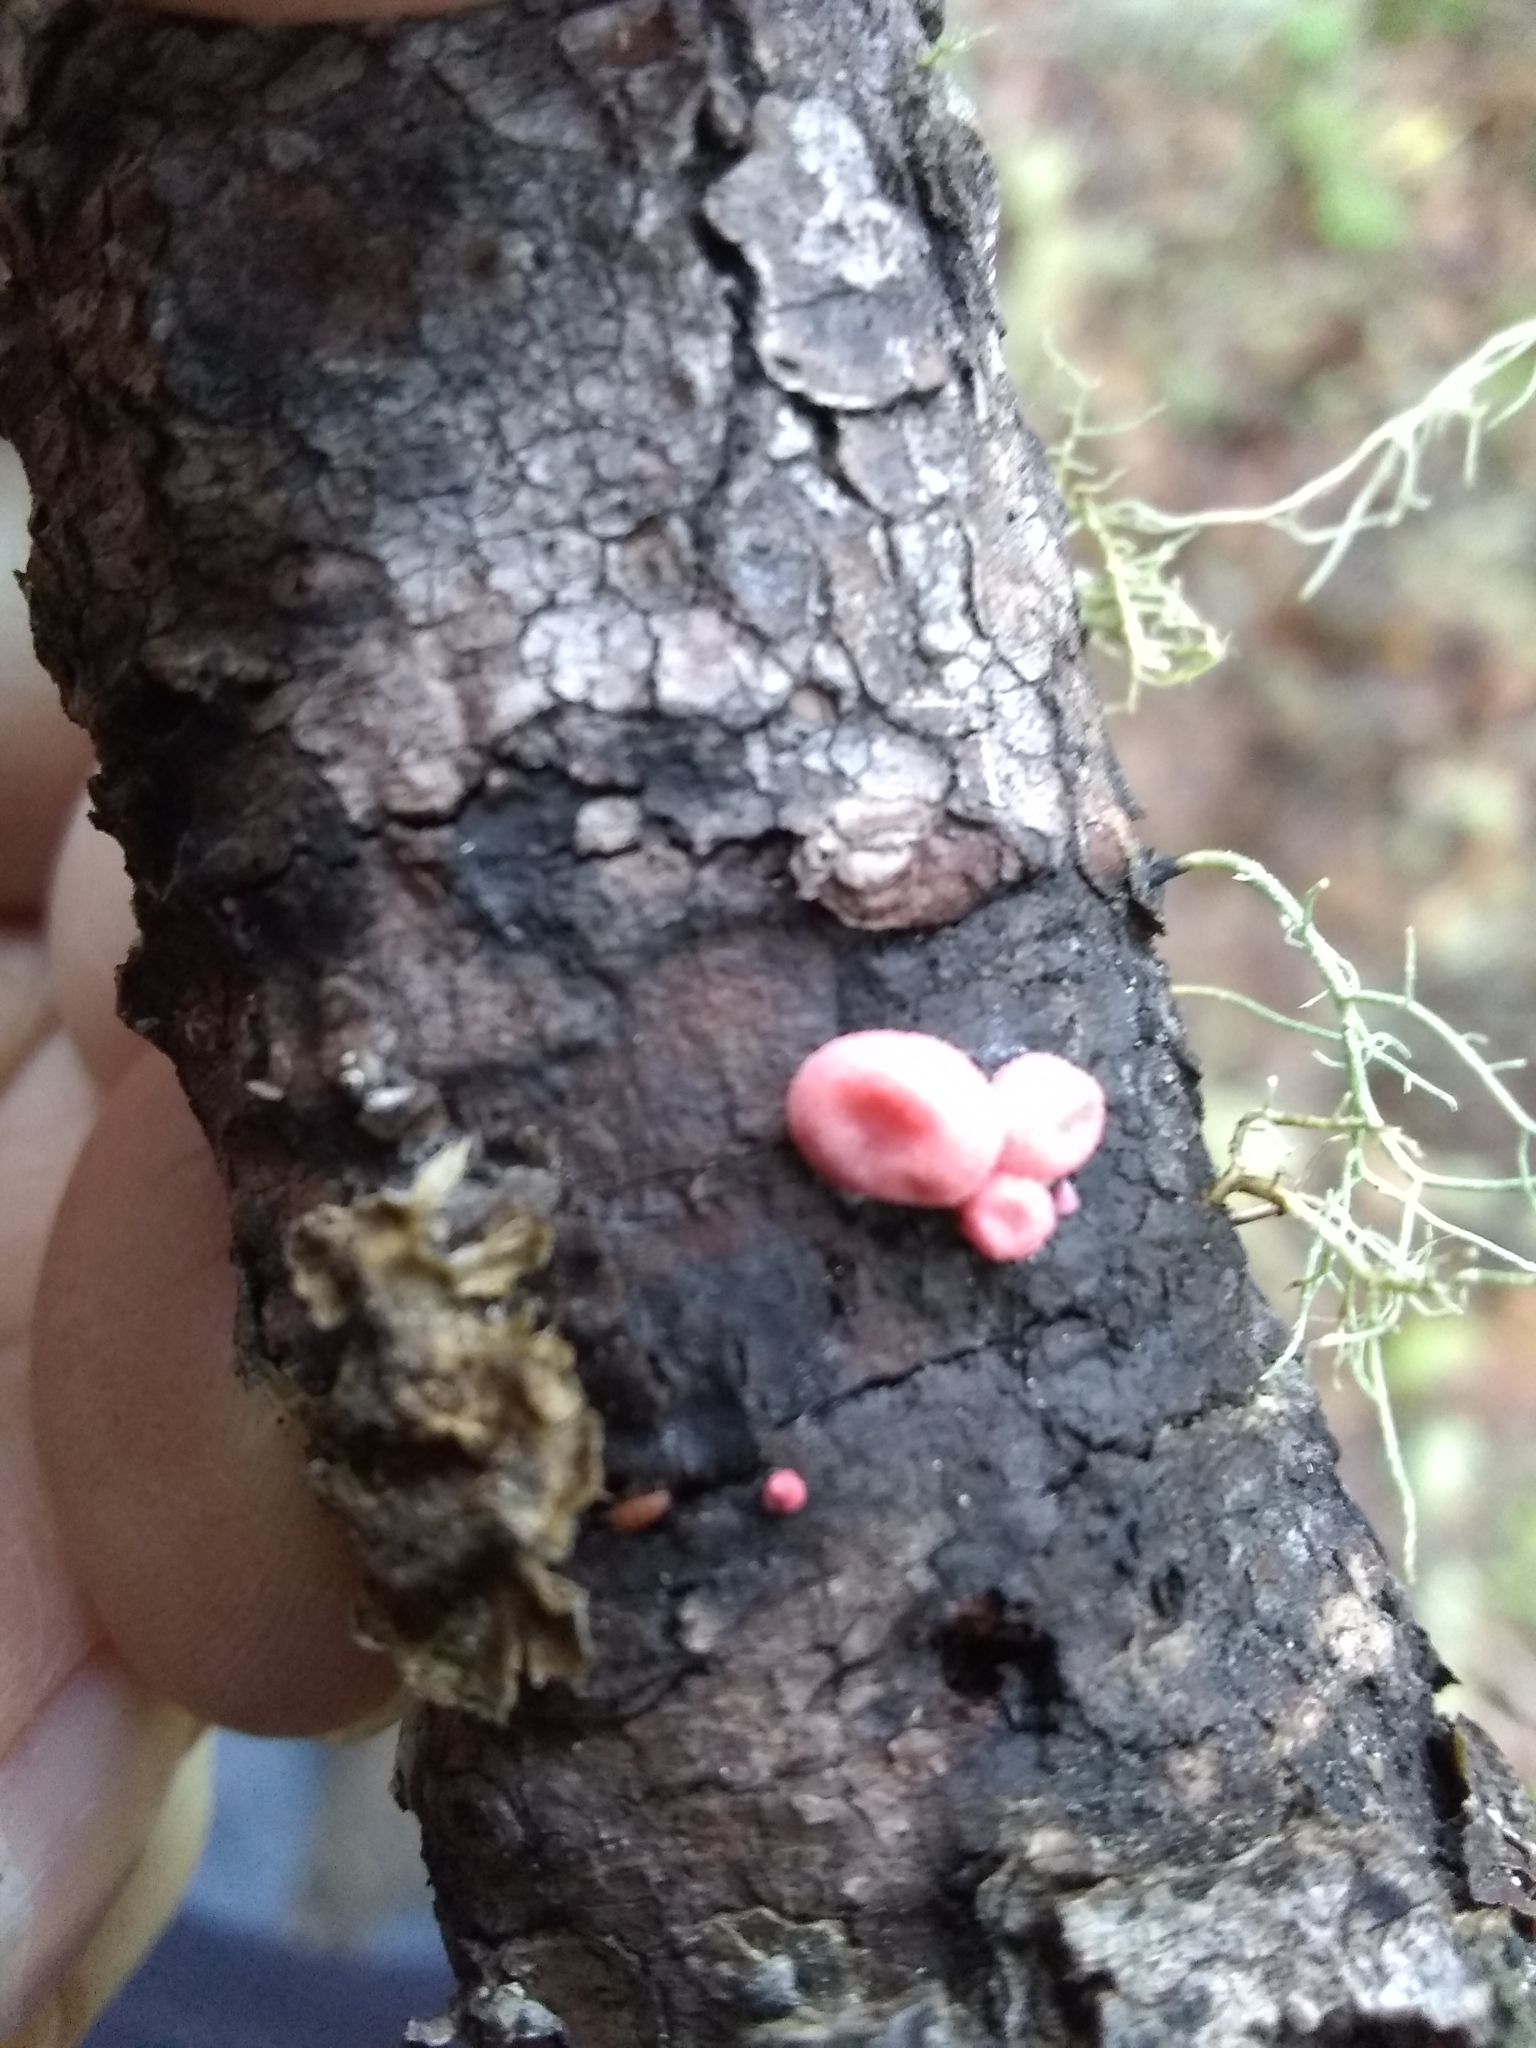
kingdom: Protozoa
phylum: Mycetozoa
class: Myxomycetes
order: Cribrariales
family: Tubiferaceae
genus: Lycogala
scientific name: Lycogala epidendrum
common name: Wolf's milk
